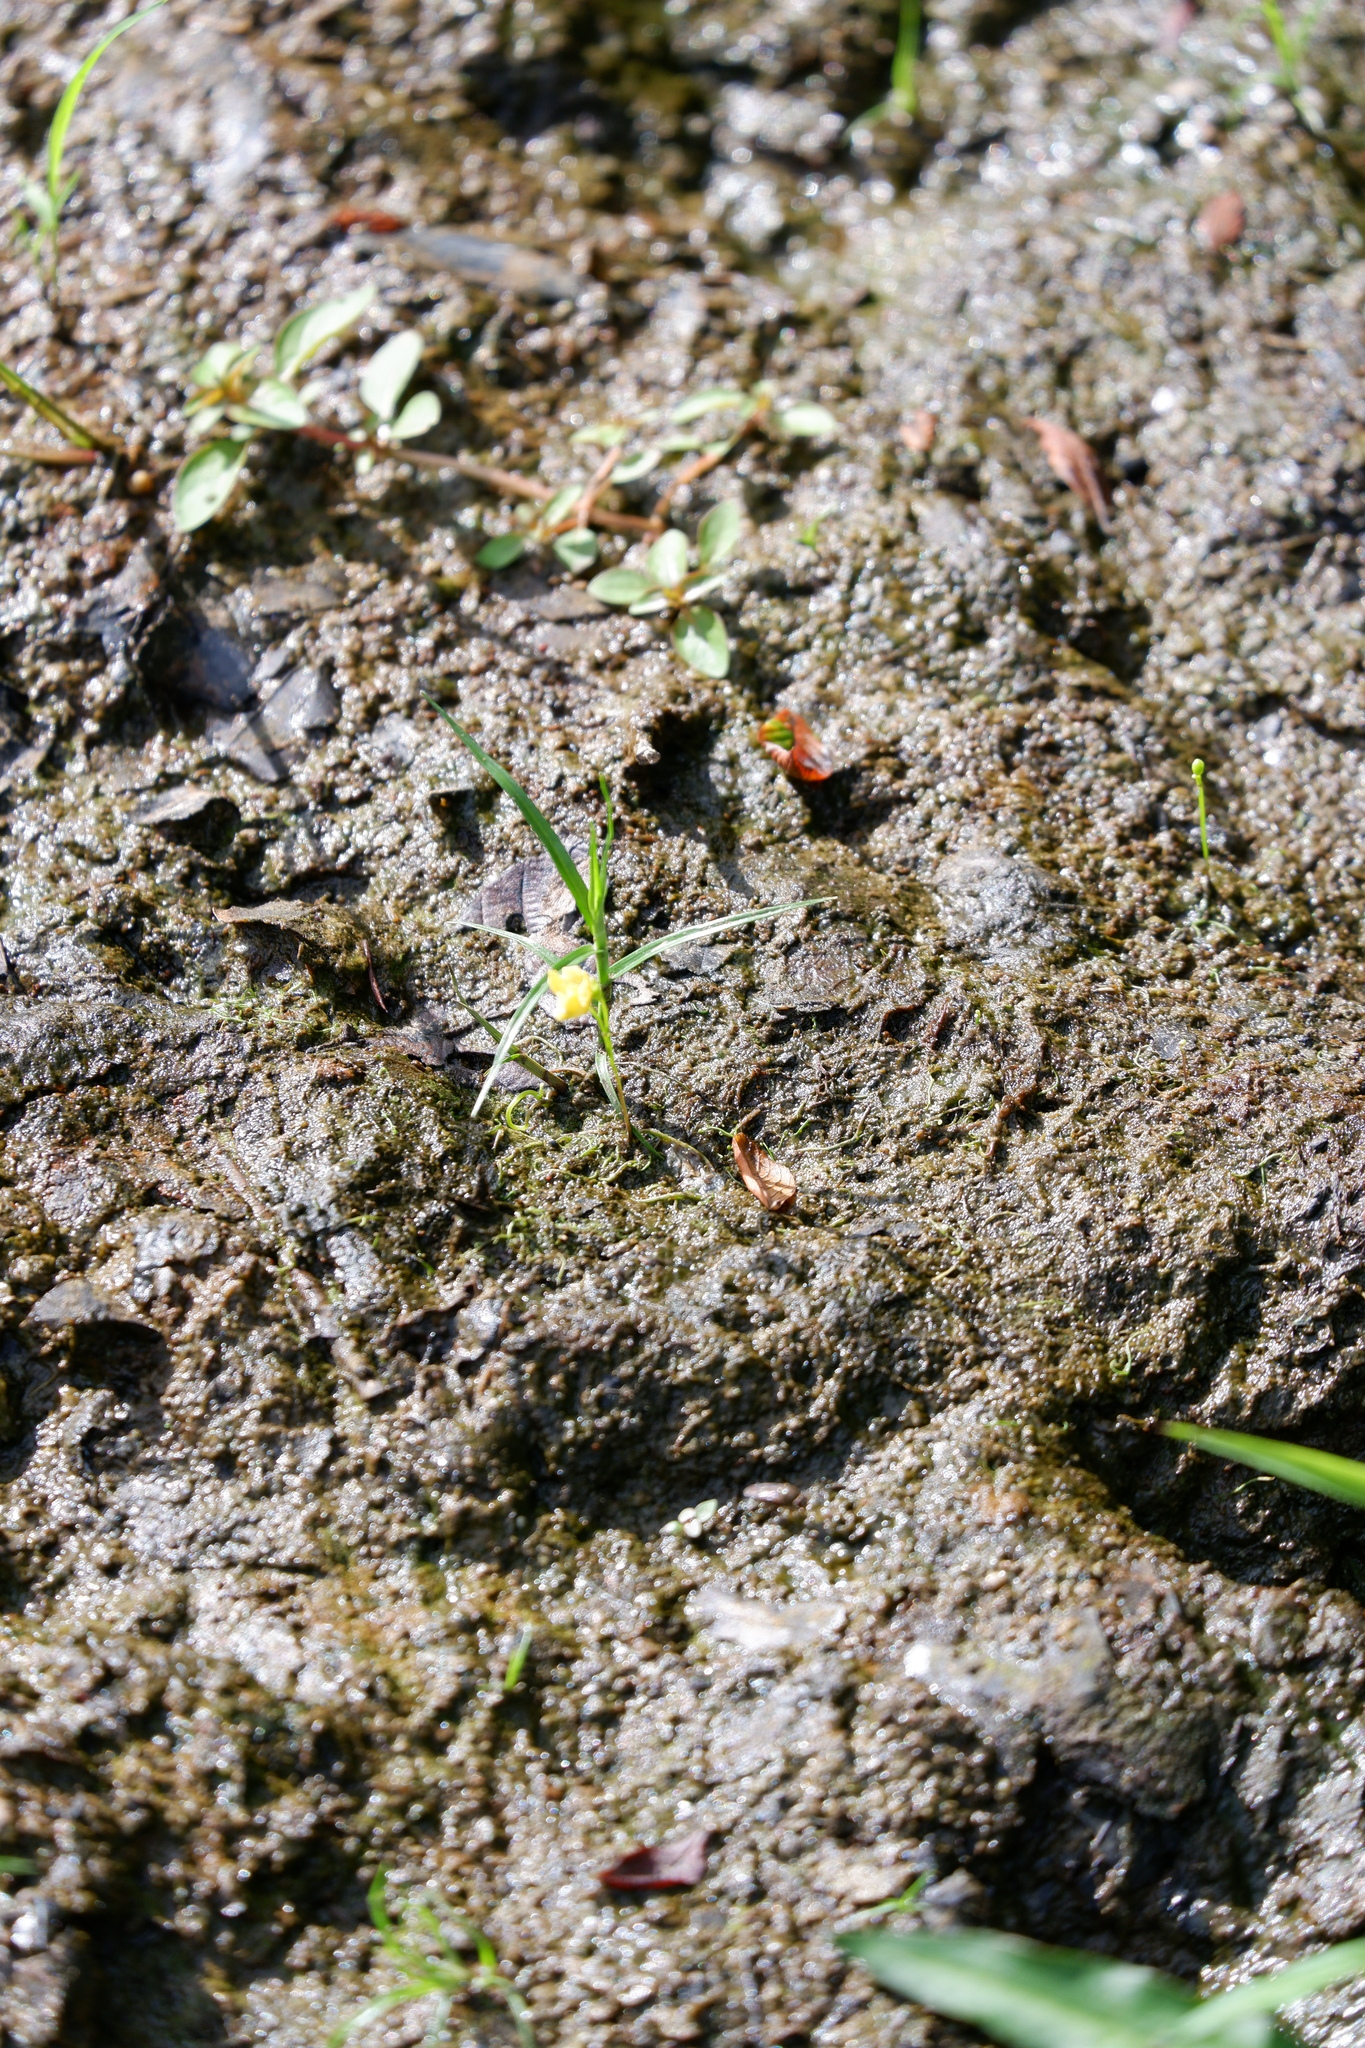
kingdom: Plantae
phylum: Tracheophyta
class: Magnoliopsida
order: Lamiales
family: Lentibulariaceae
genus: Utricularia
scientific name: Utricularia gibba
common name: Humped bladderwort
